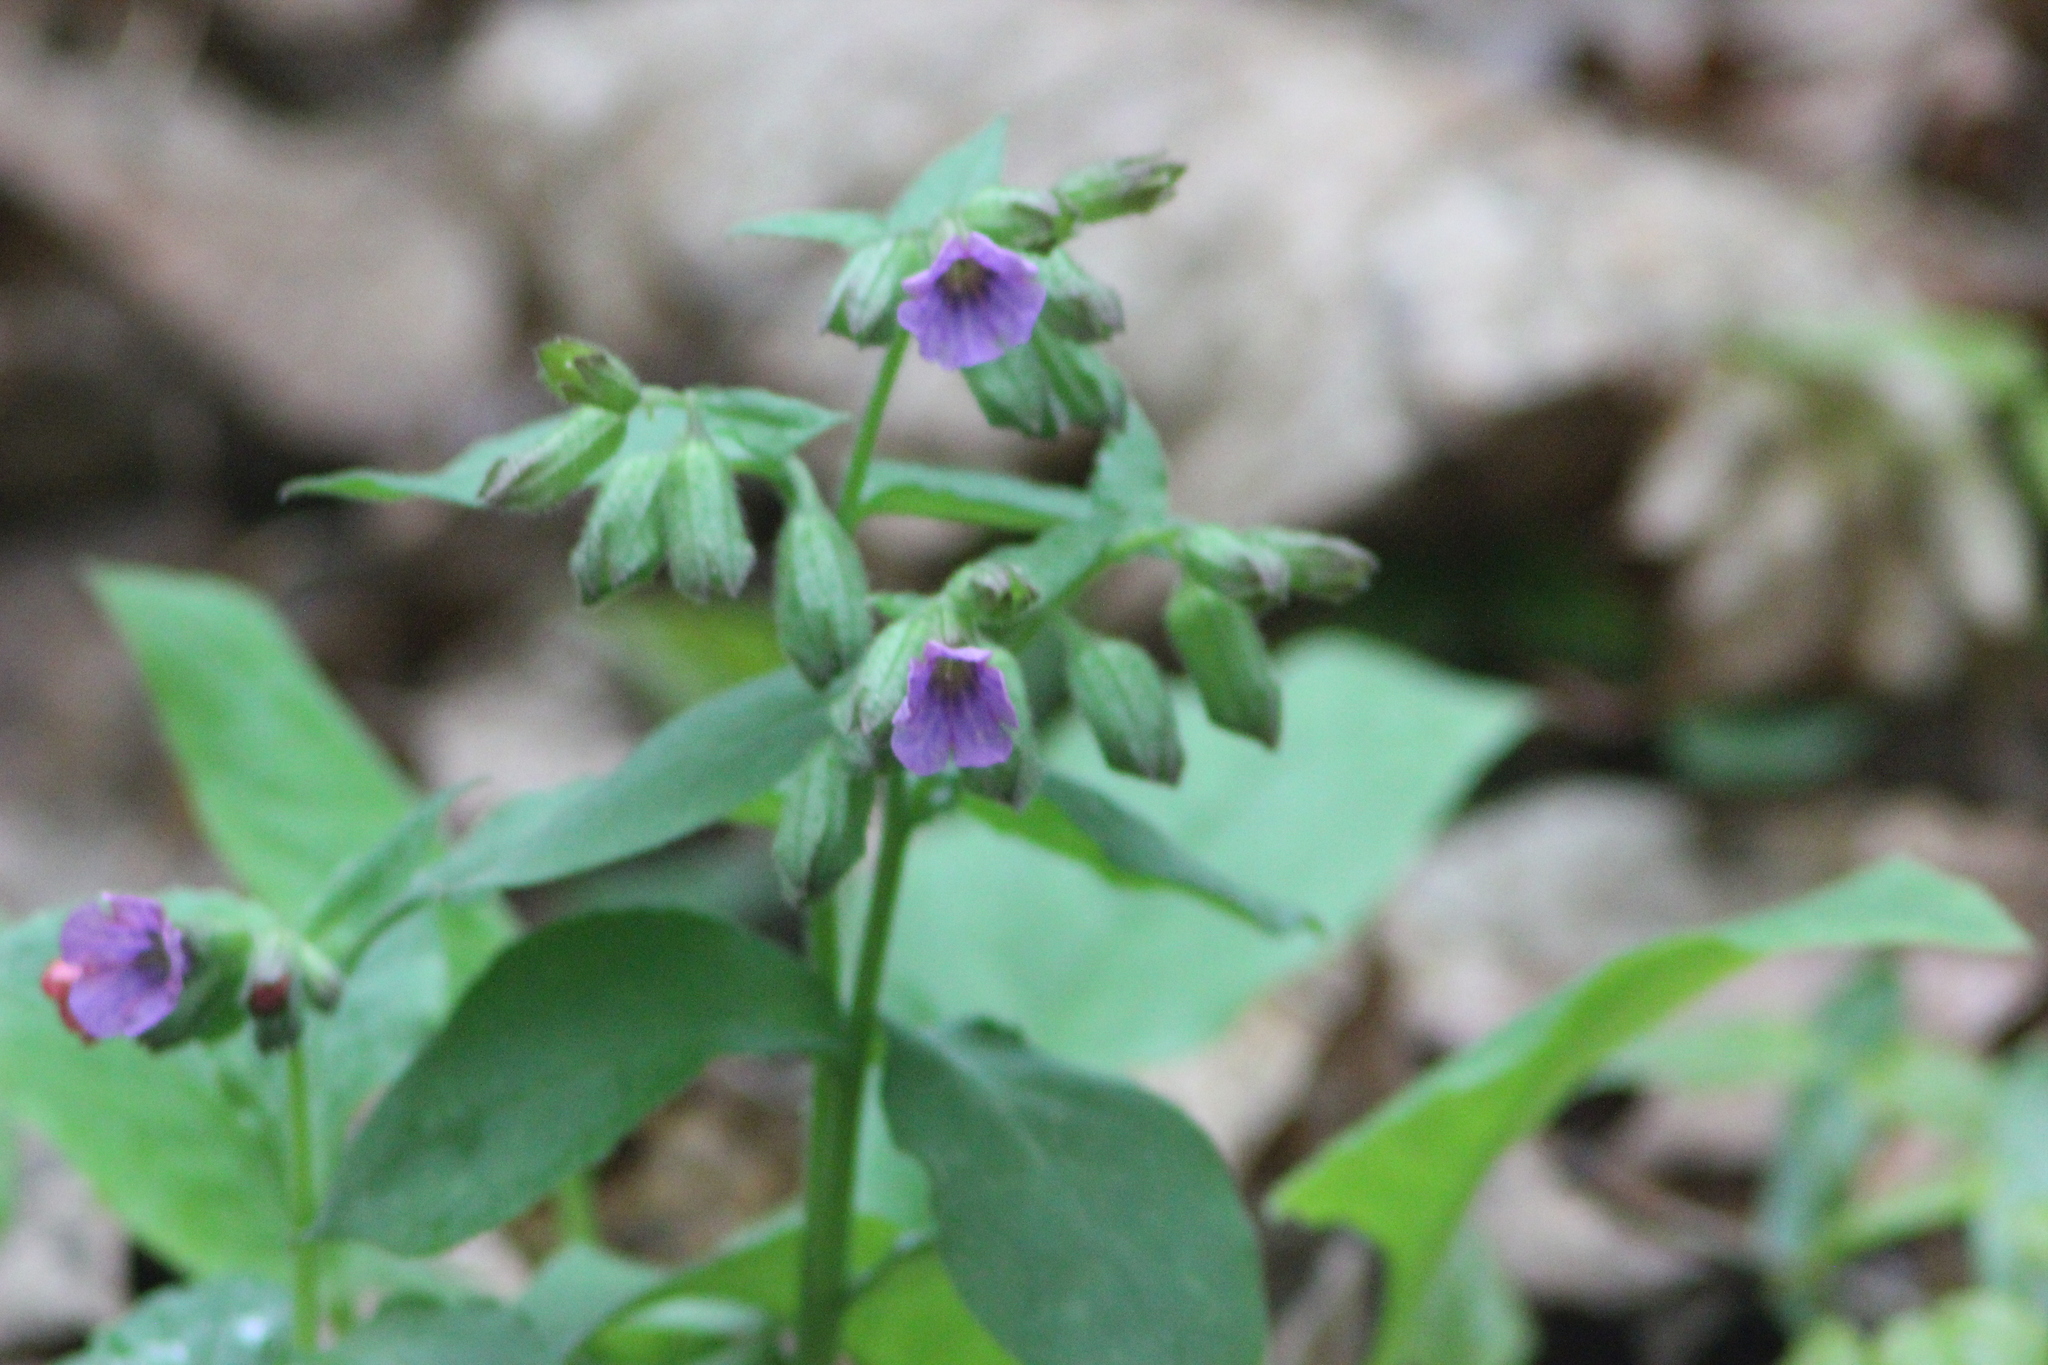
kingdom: Plantae
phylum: Tracheophyta
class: Magnoliopsida
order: Boraginales
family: Boraginaceae
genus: Pulmonaria
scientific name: Pulmonaria obscura
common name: Suffolk lungwort
